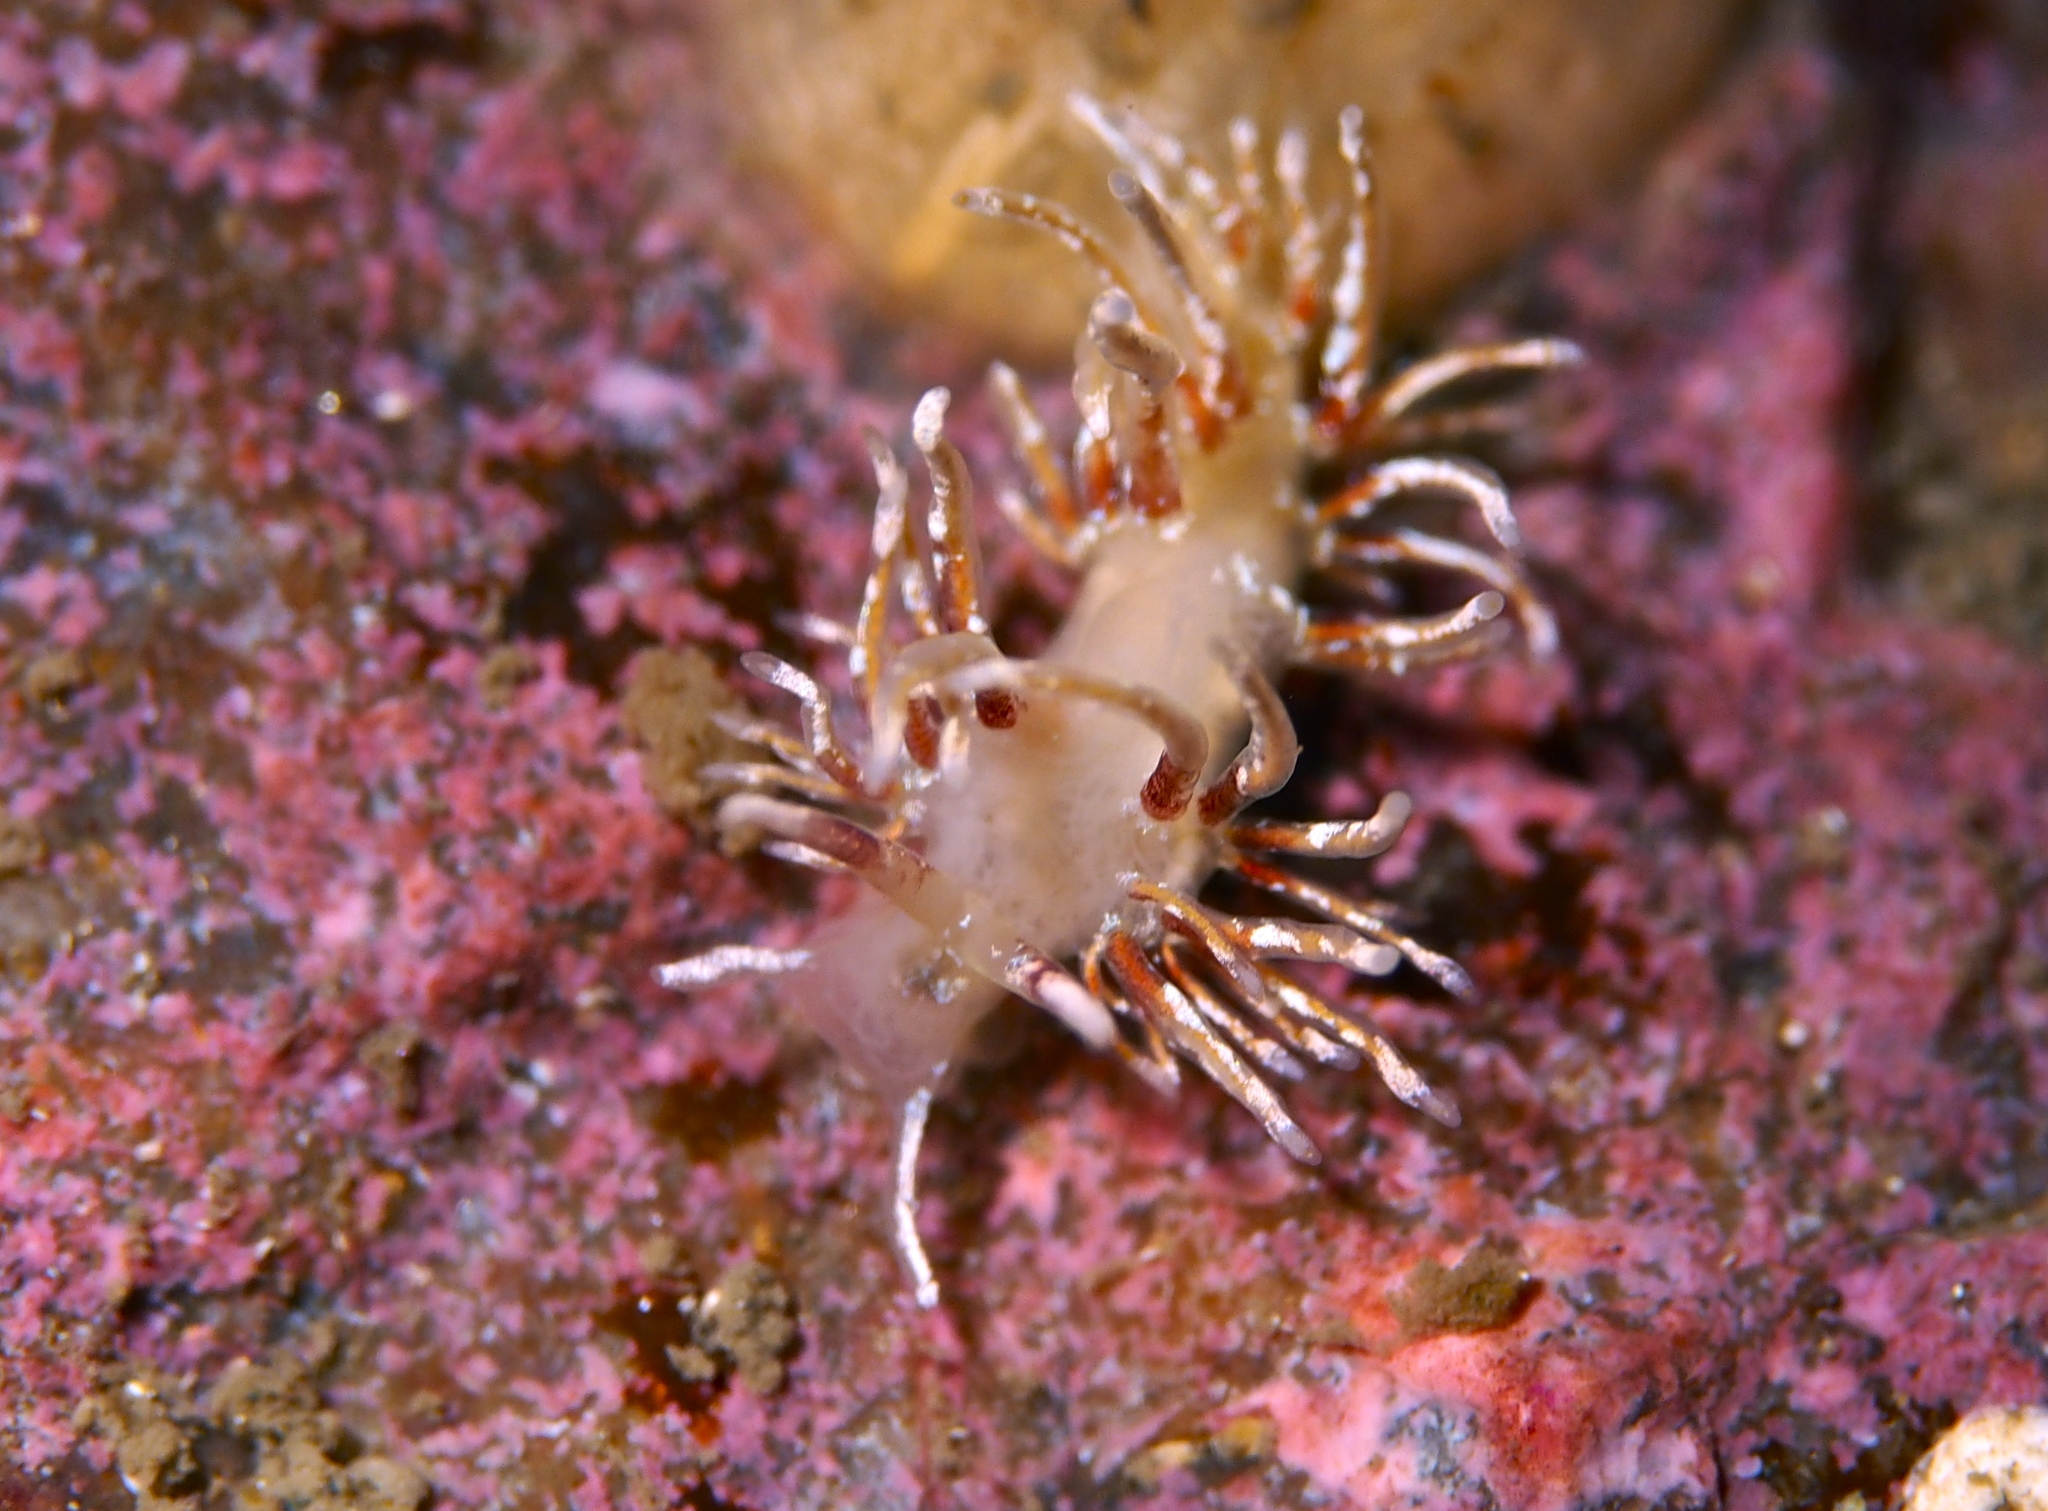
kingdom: Animalia
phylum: Mollusca
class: Gastropoda
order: Nudibranchia
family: Trinchesiidae
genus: Rubramoena
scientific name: Rubramoena rubescens
